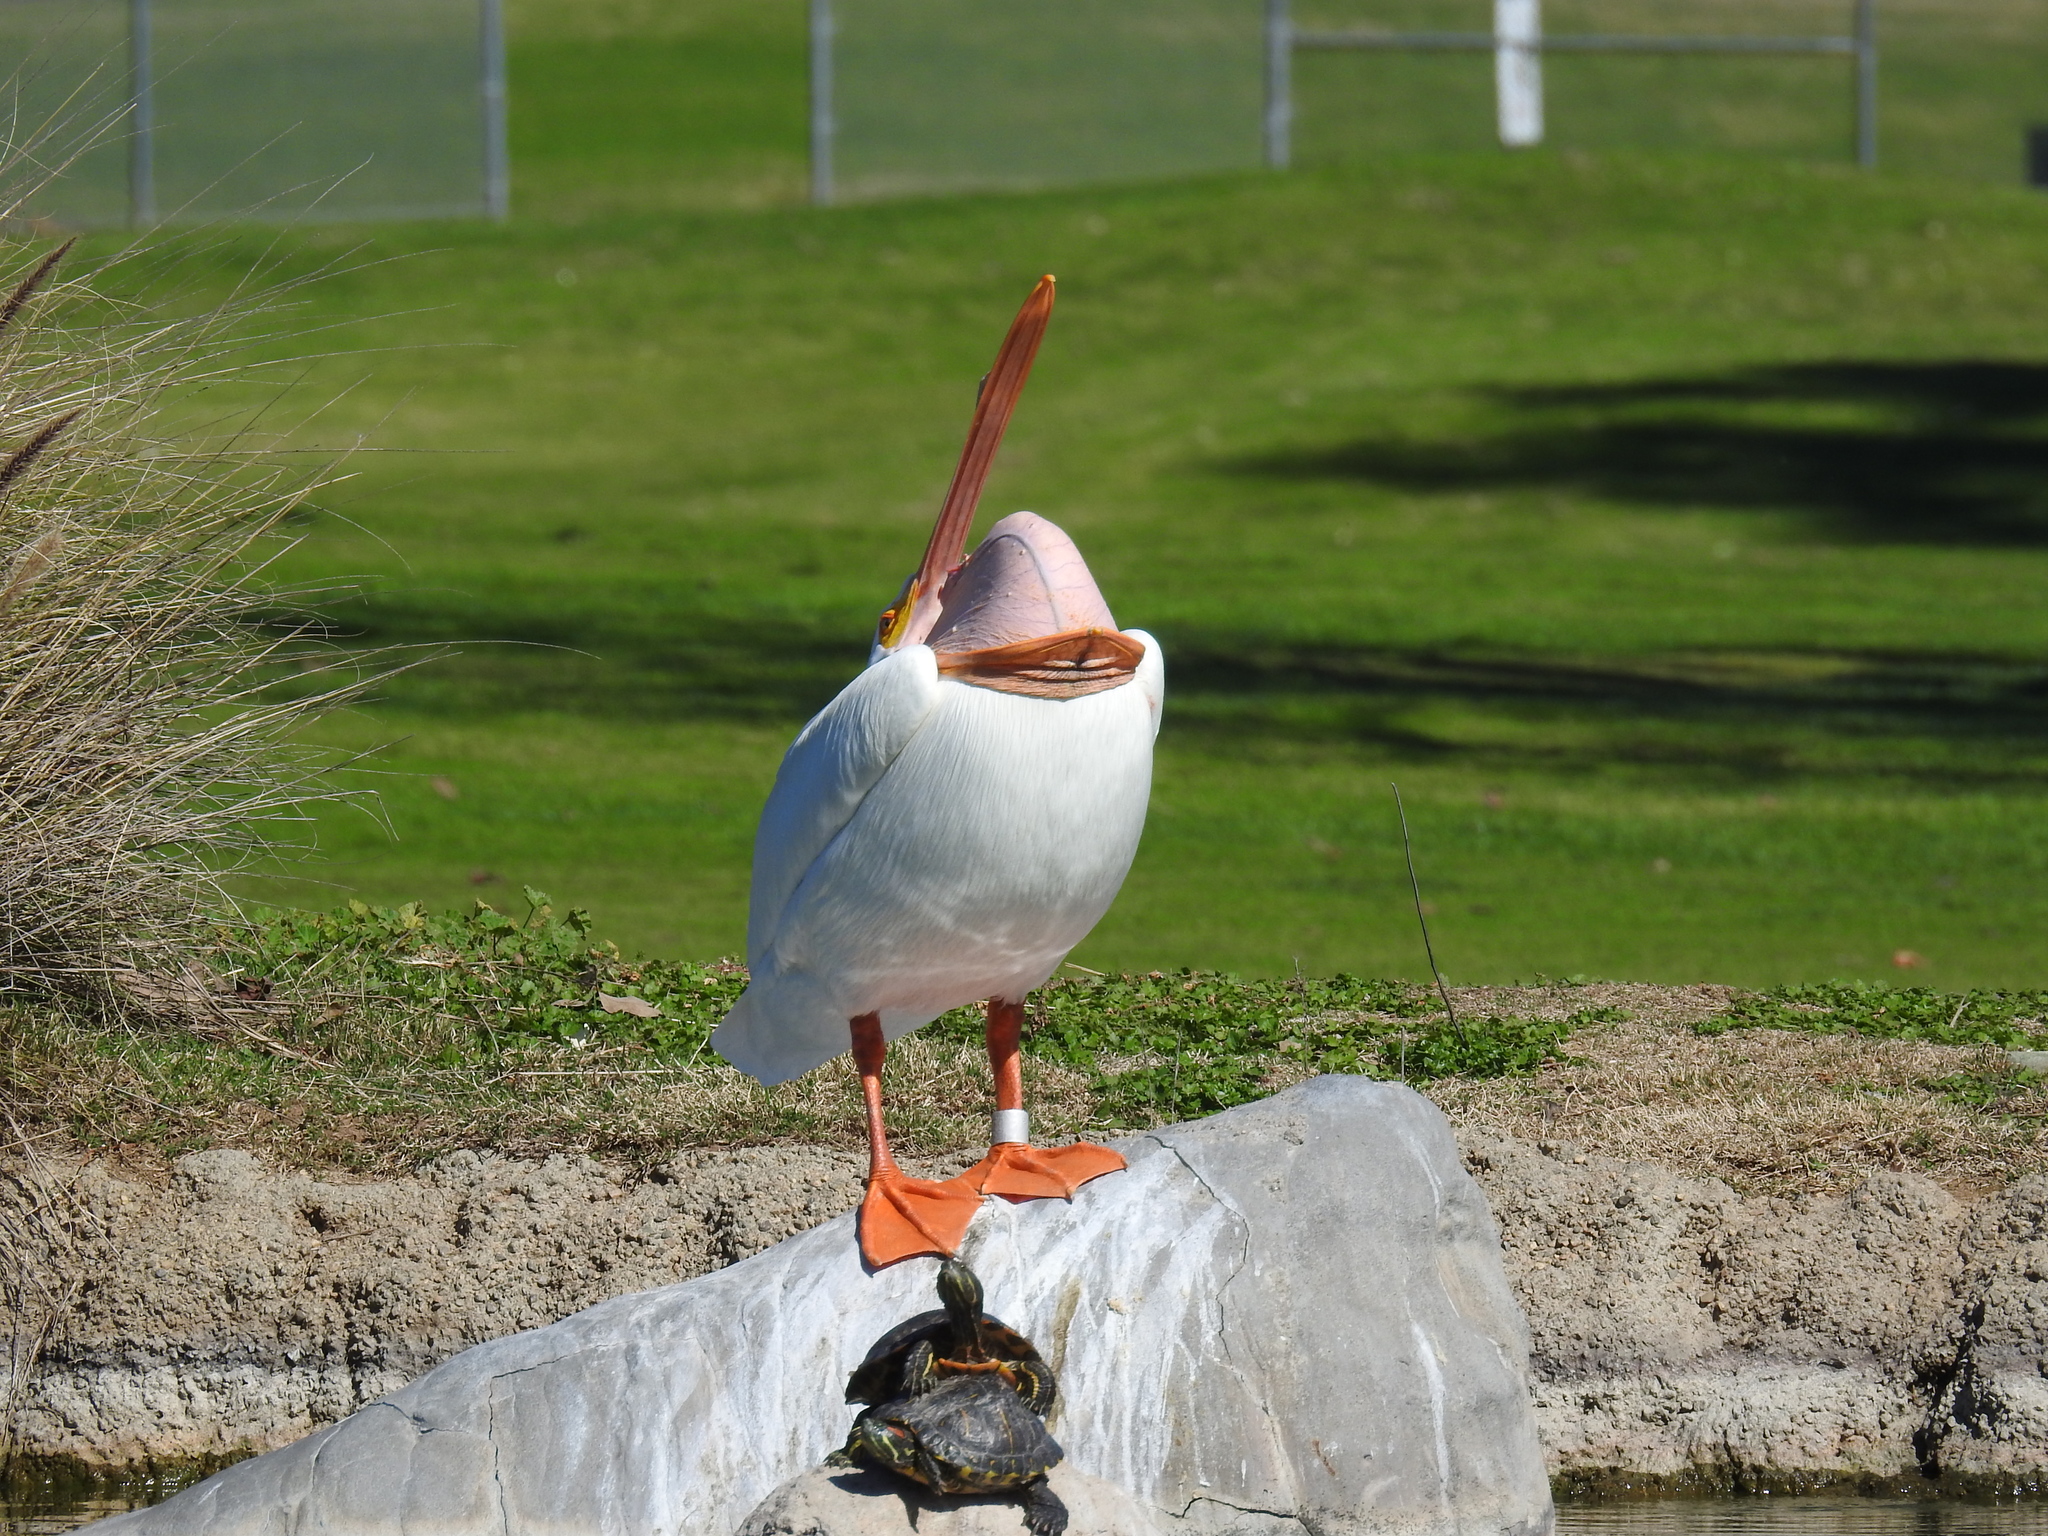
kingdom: Animalia
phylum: Chordata
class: Aves
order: Pelecaniformes
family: Pelecanidae
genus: Pelecanus
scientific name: Pelecanus erythrorhynchos
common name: American white pelican
